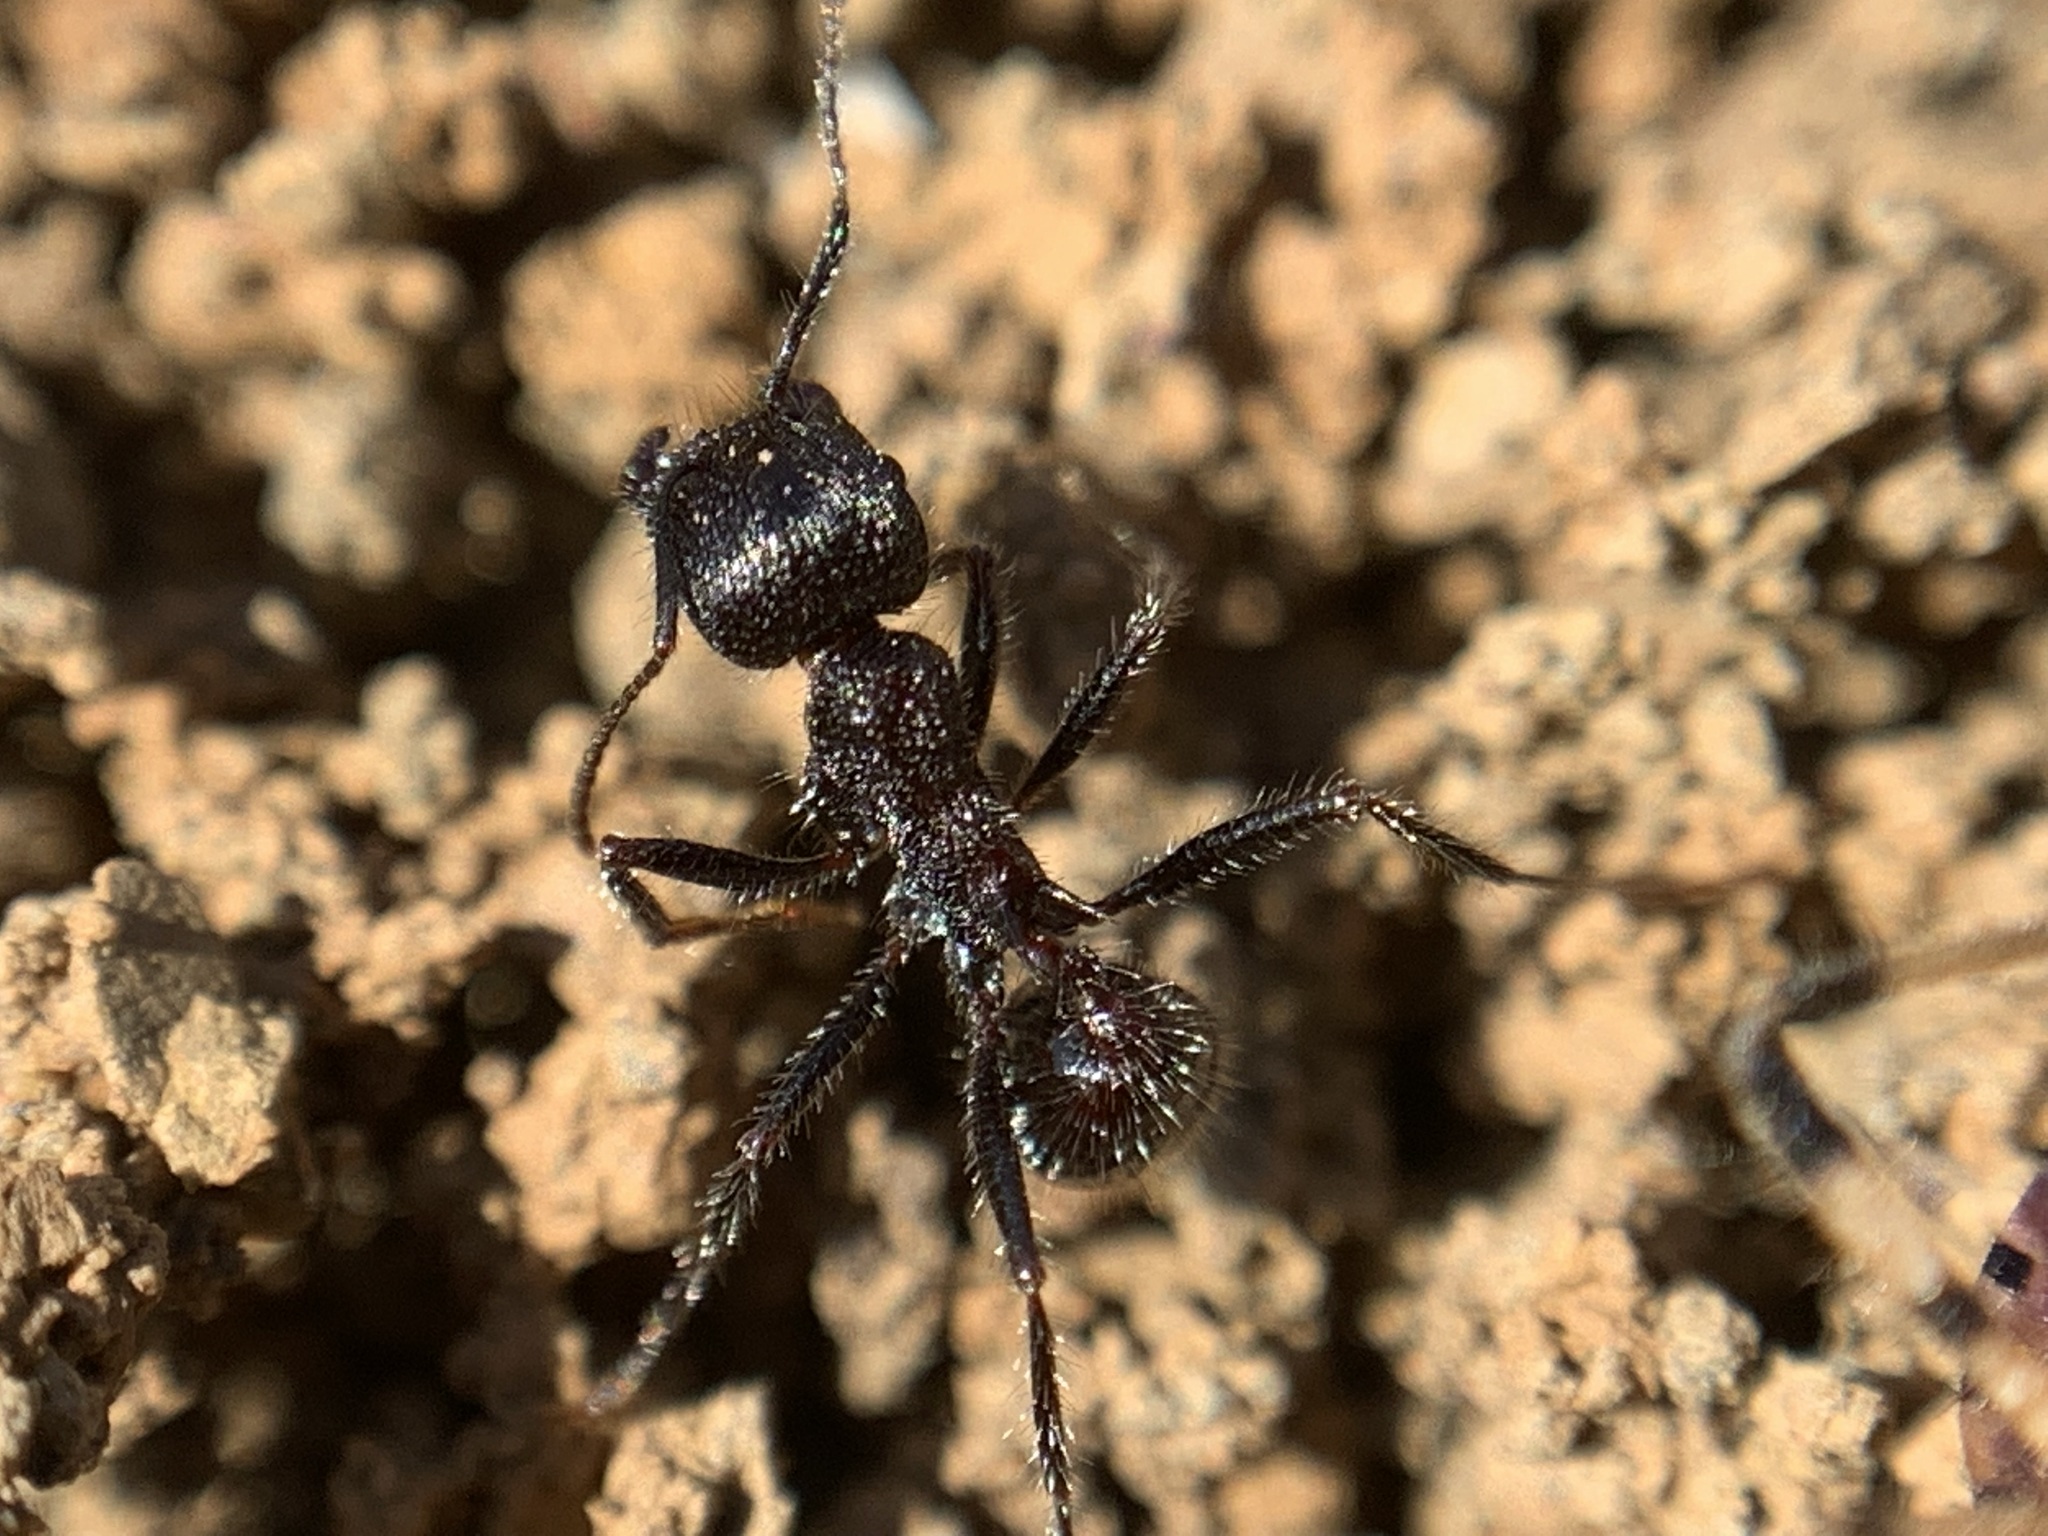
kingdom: Animalia
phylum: Arthropoda
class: Insecta
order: Hymenoptera
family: Formicidae
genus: Veromessor
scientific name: Veromessor andrei
